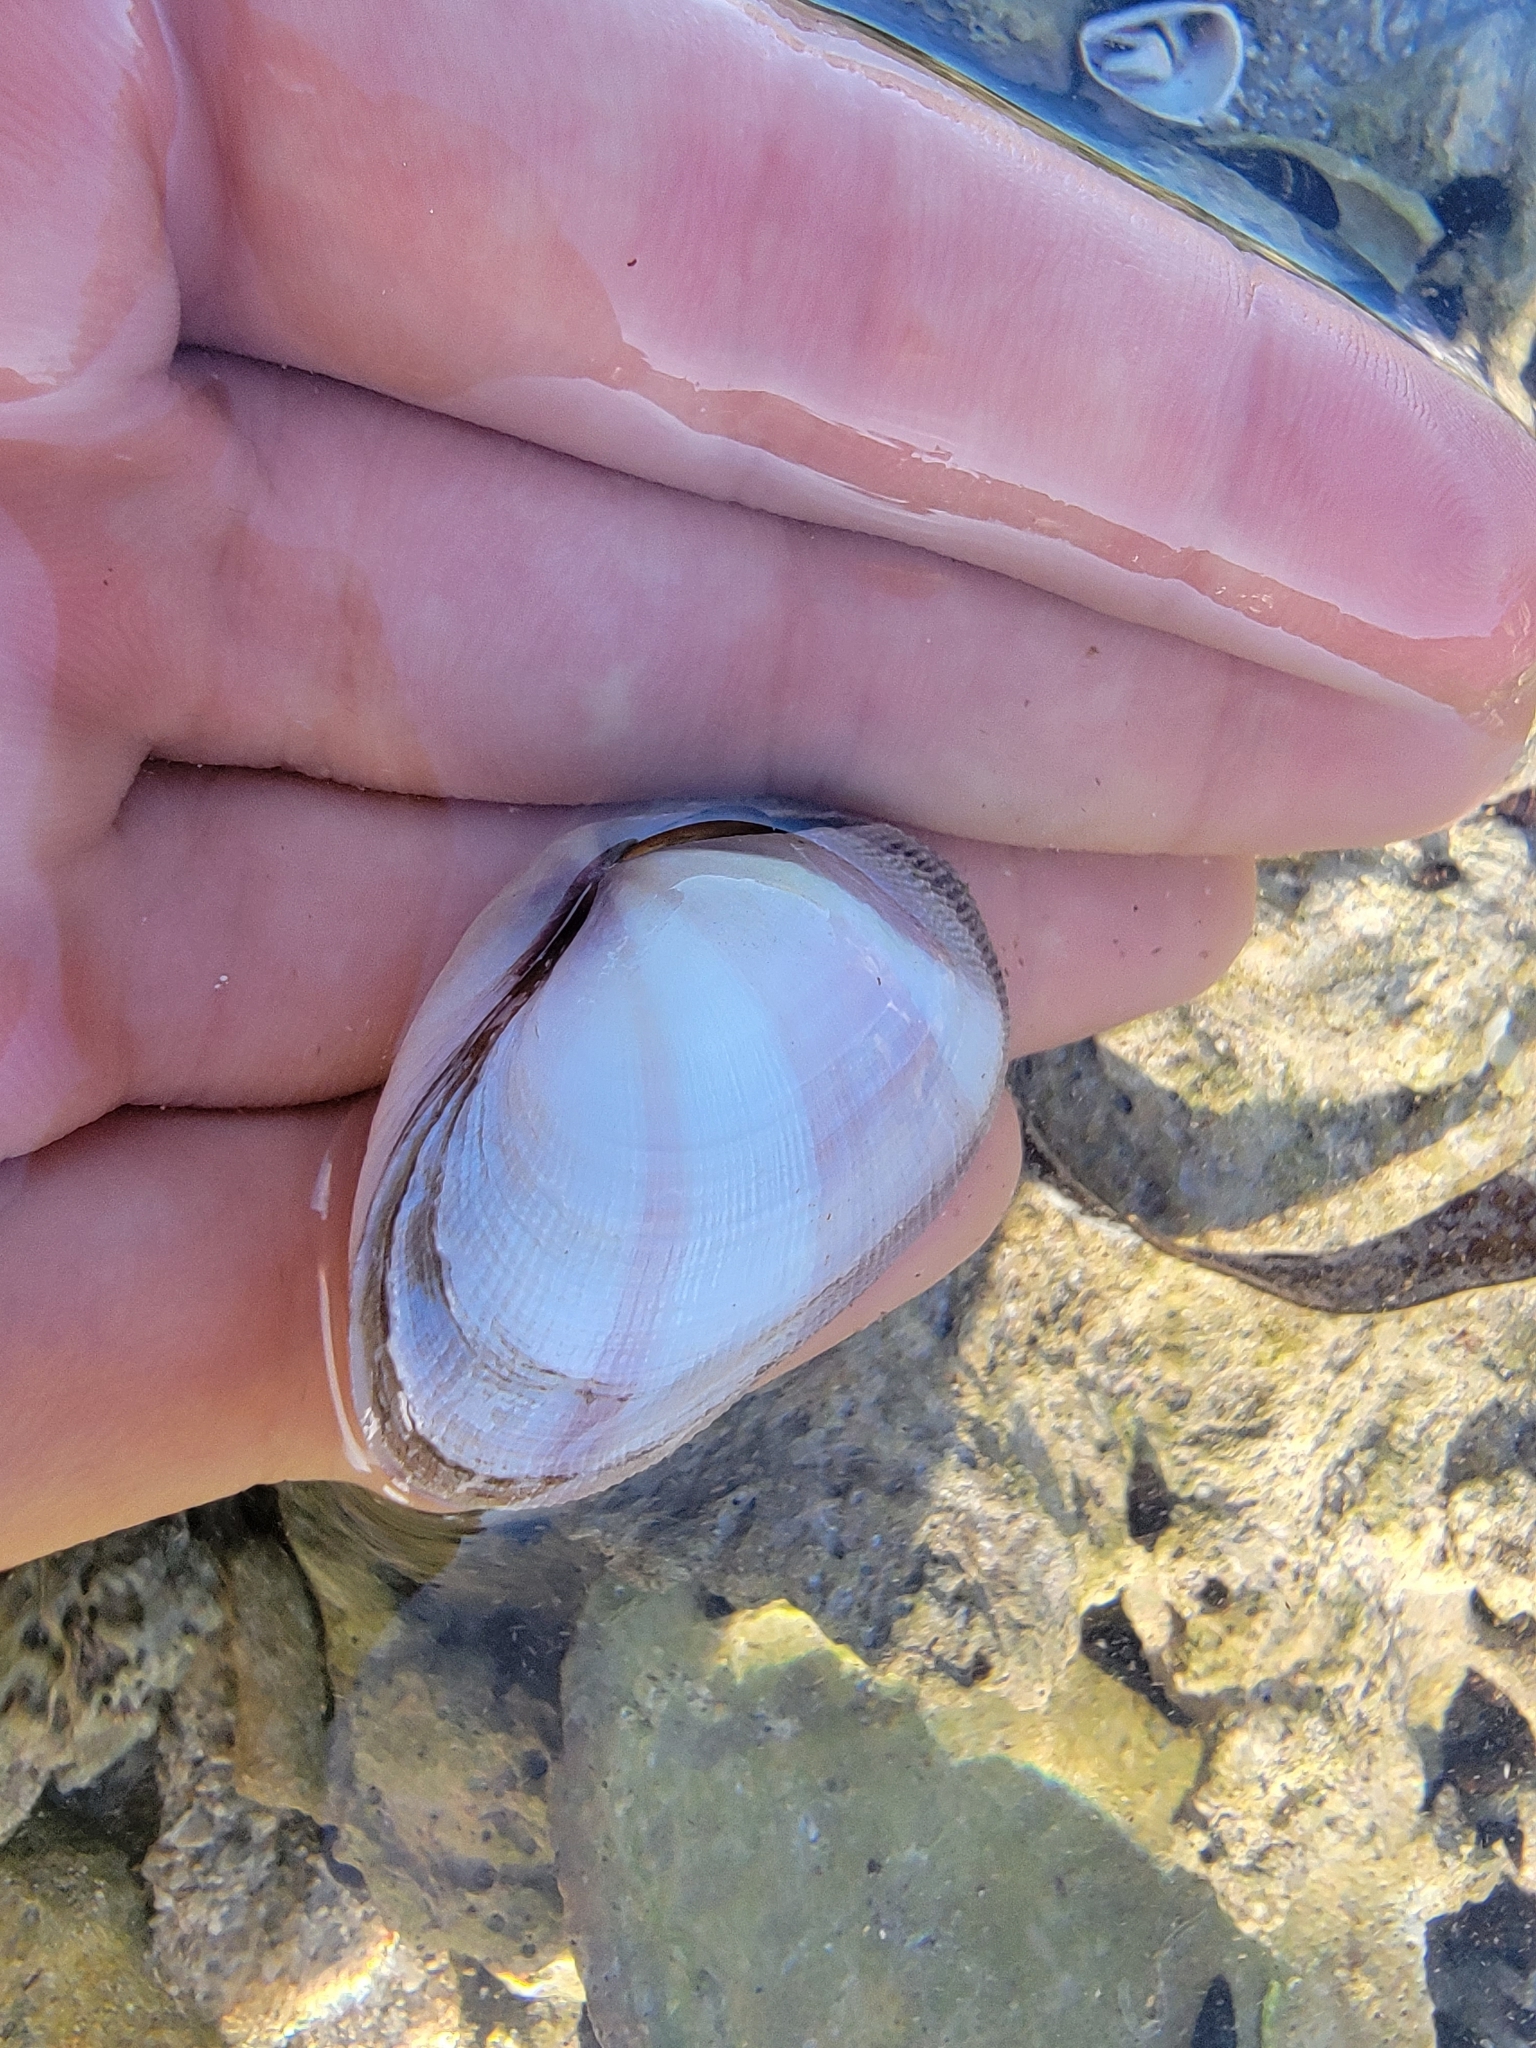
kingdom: Animalia
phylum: Mollusca
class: Bivalvia
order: Cardiida
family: Psammobiidae
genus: Asaphis
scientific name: Asaphis deflorata
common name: Gaudy asaphis
